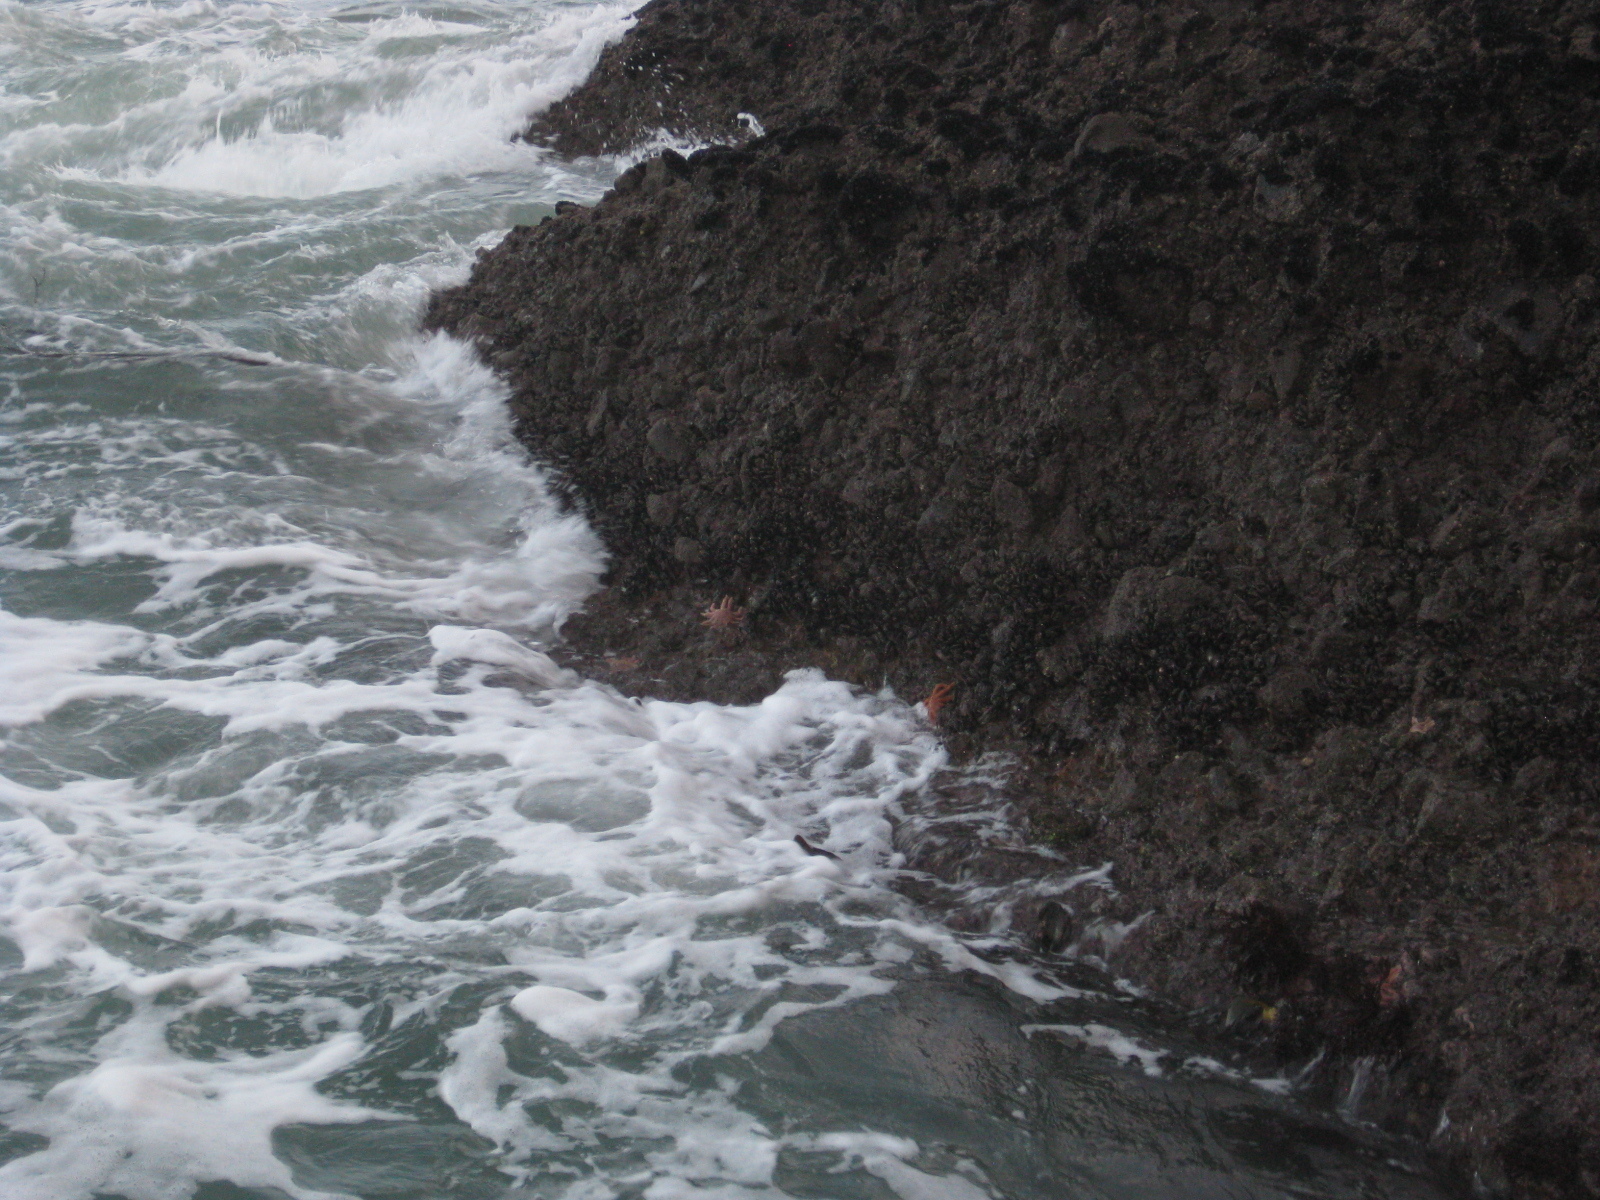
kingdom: Animalia
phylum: Echinodermata
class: Asteroidea
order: Forcipulatida
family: Stichasteridae
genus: Stichaster
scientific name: Stichaster australis
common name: Reef starfish
